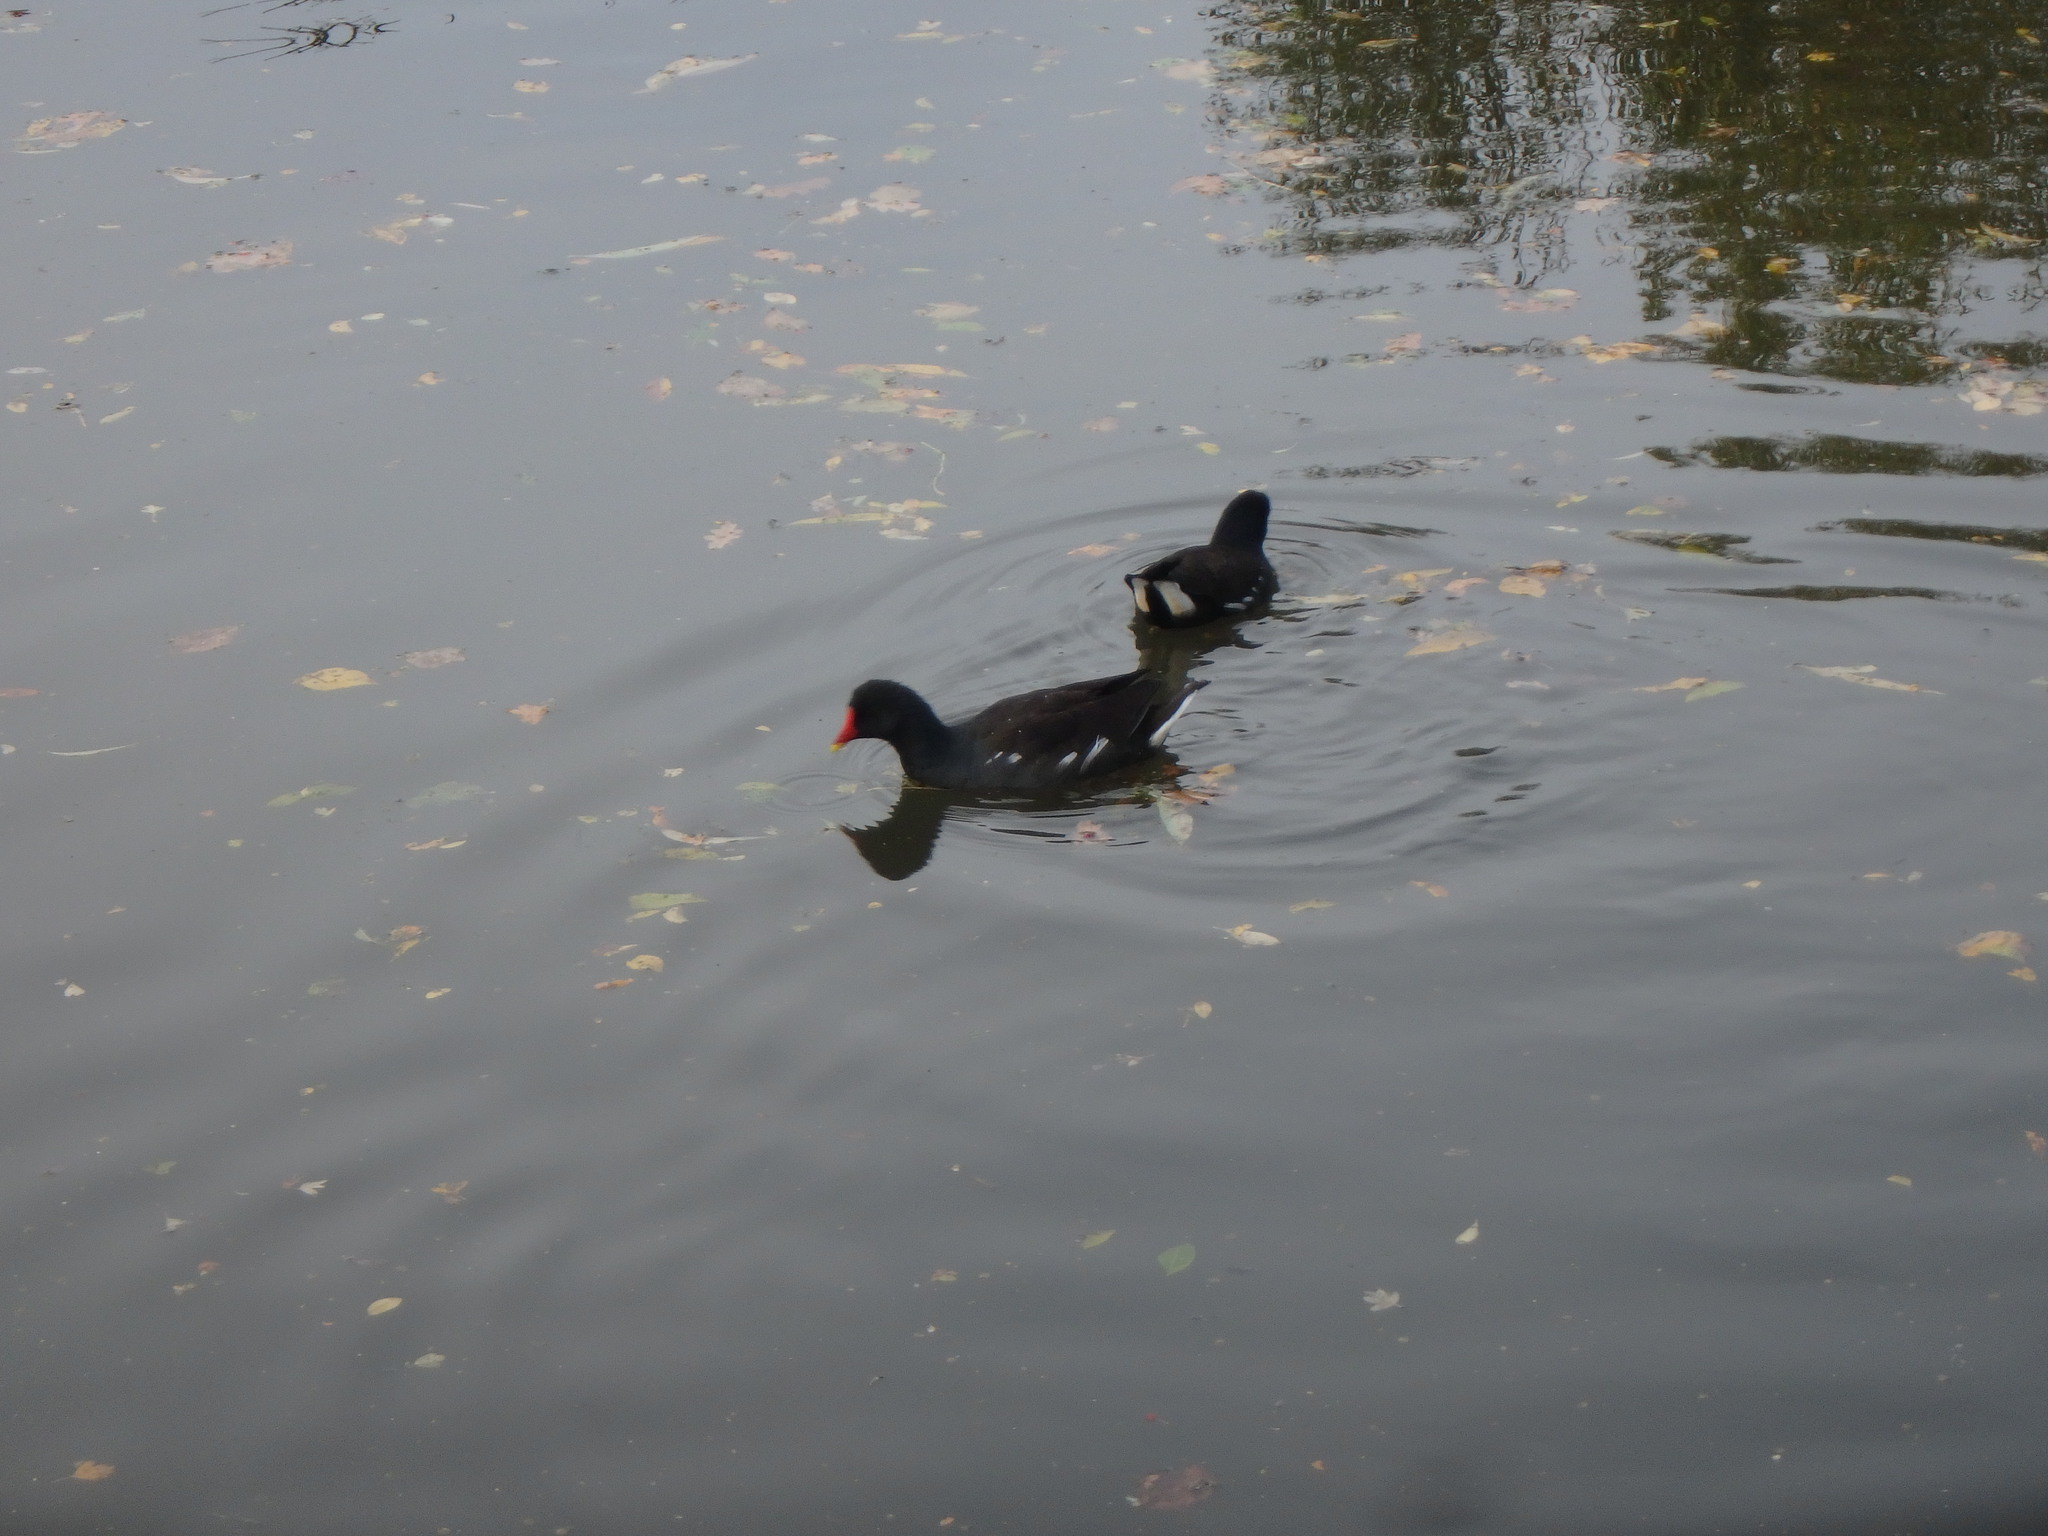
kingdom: Animalia
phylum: Chordata
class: Aves
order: Gruiformes
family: Rallidae
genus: Gallinula
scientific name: Gallinula chloropus
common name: Common moorhen
